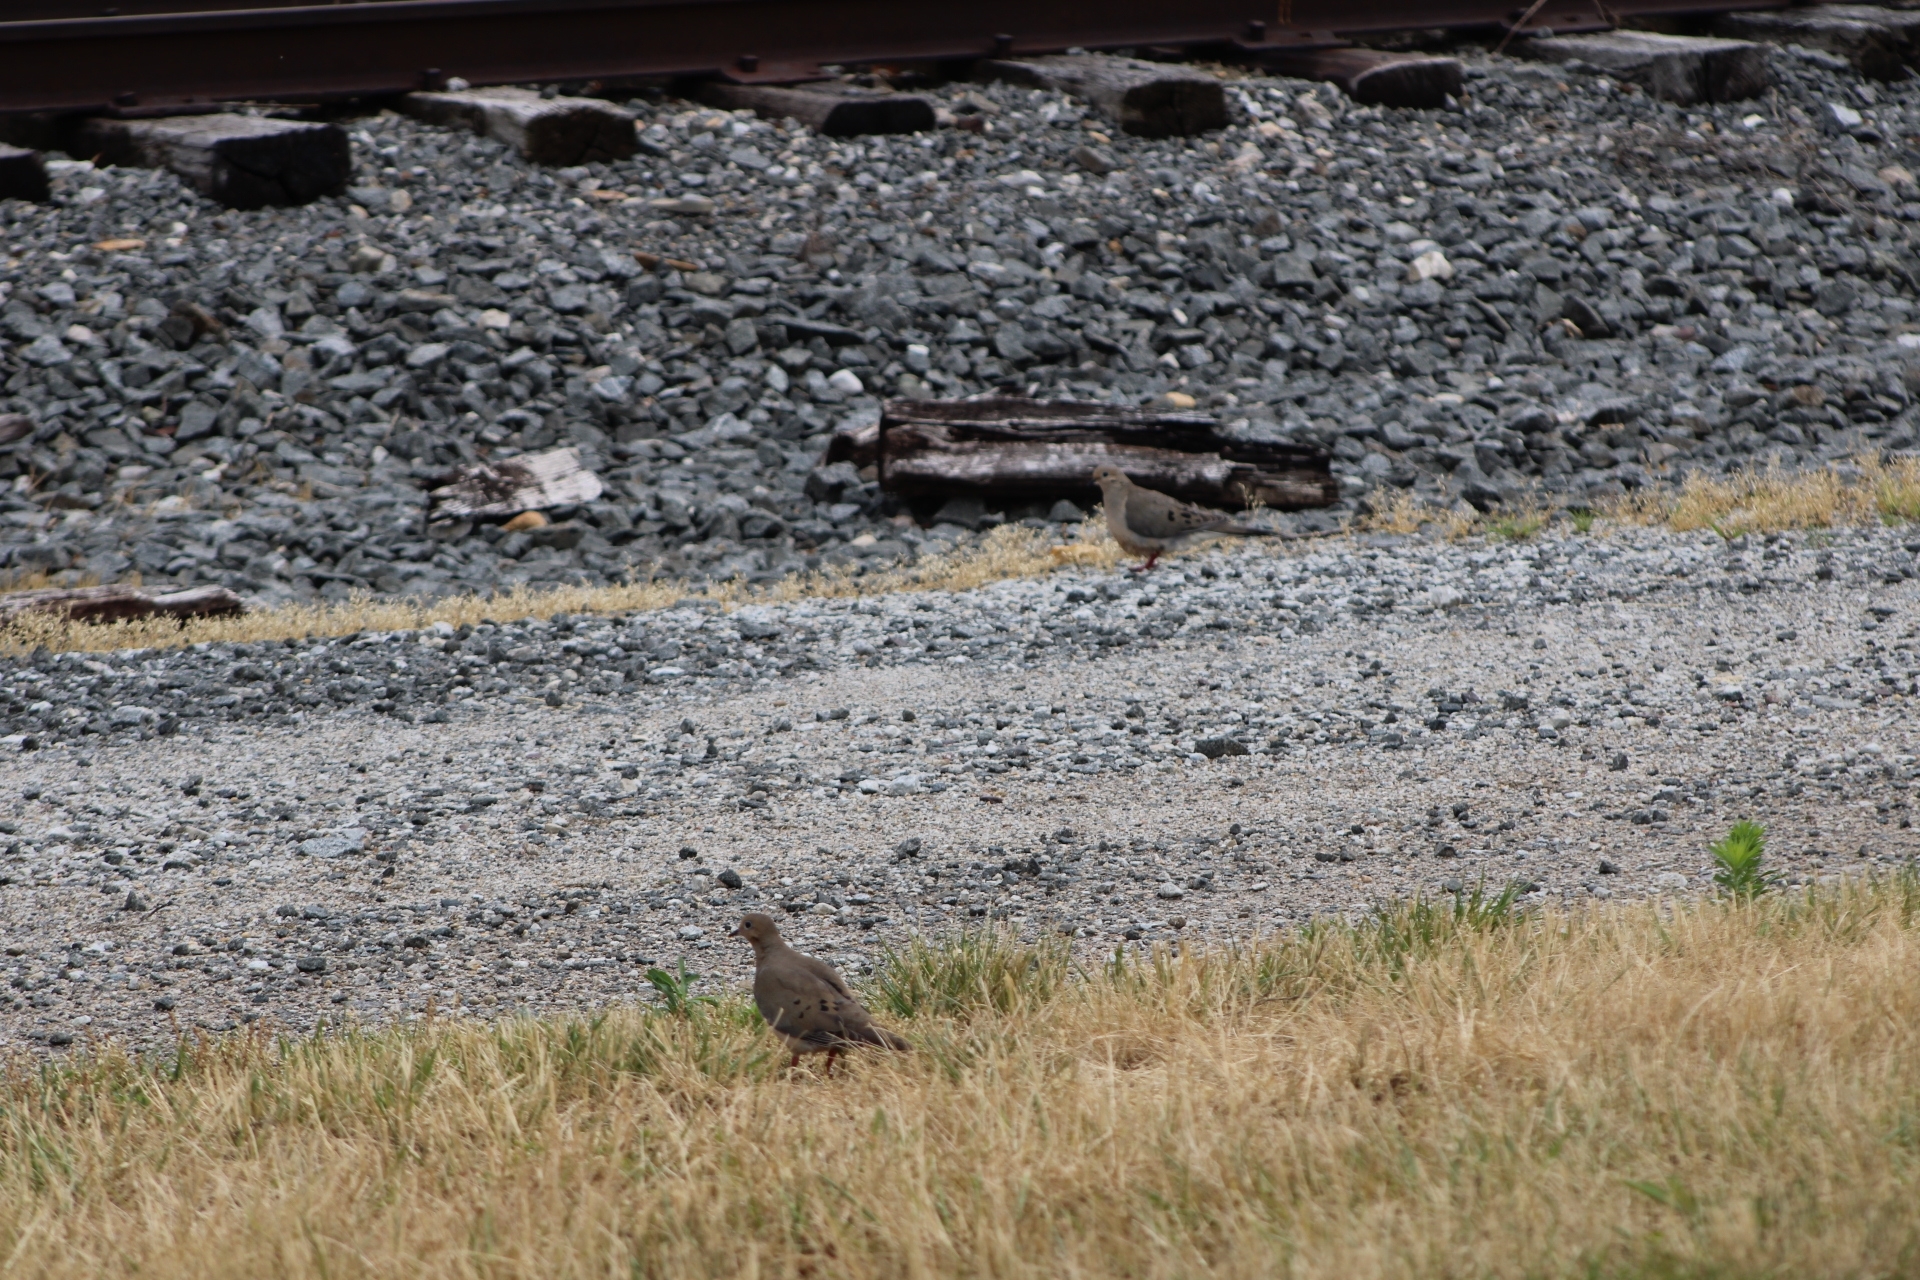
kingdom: Animalia
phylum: Chordata
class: Aves
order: Columbiformes
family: Columbidae
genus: Zenaida
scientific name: Zenaida macroura
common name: Mourning dove
